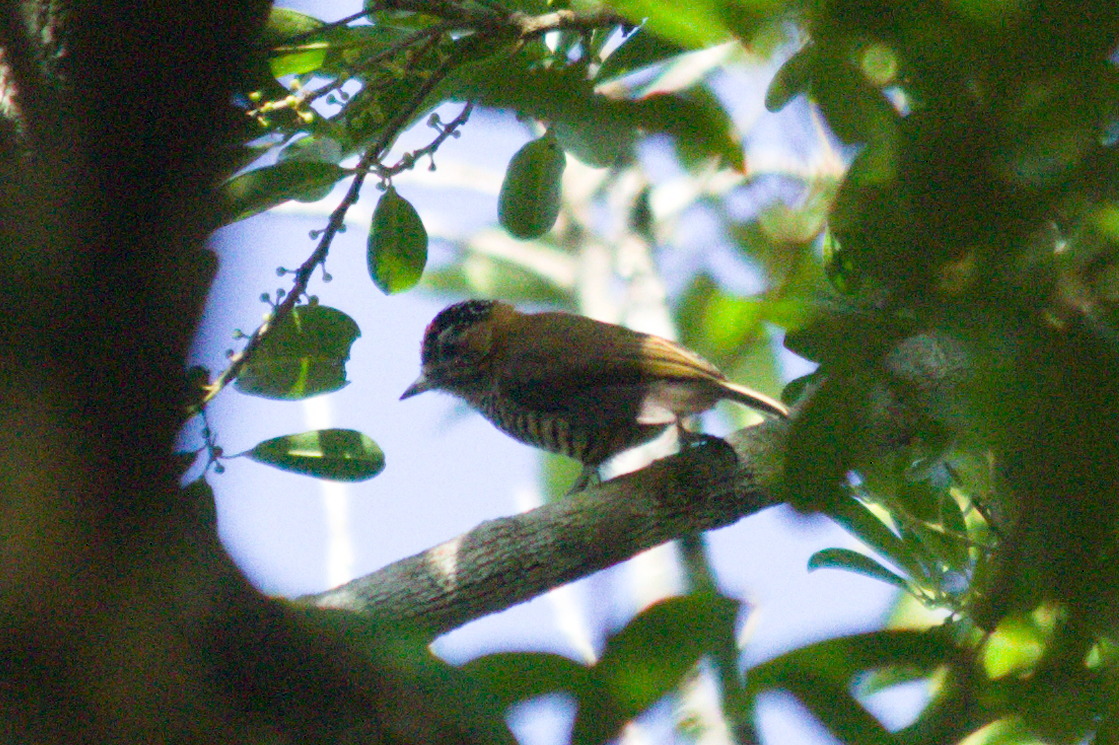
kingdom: Animalia
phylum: Chordata
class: Aves
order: Piciformes
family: Picidae
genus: Picumnus
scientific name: Picumnus temminckii
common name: Ochre-collared piculet
